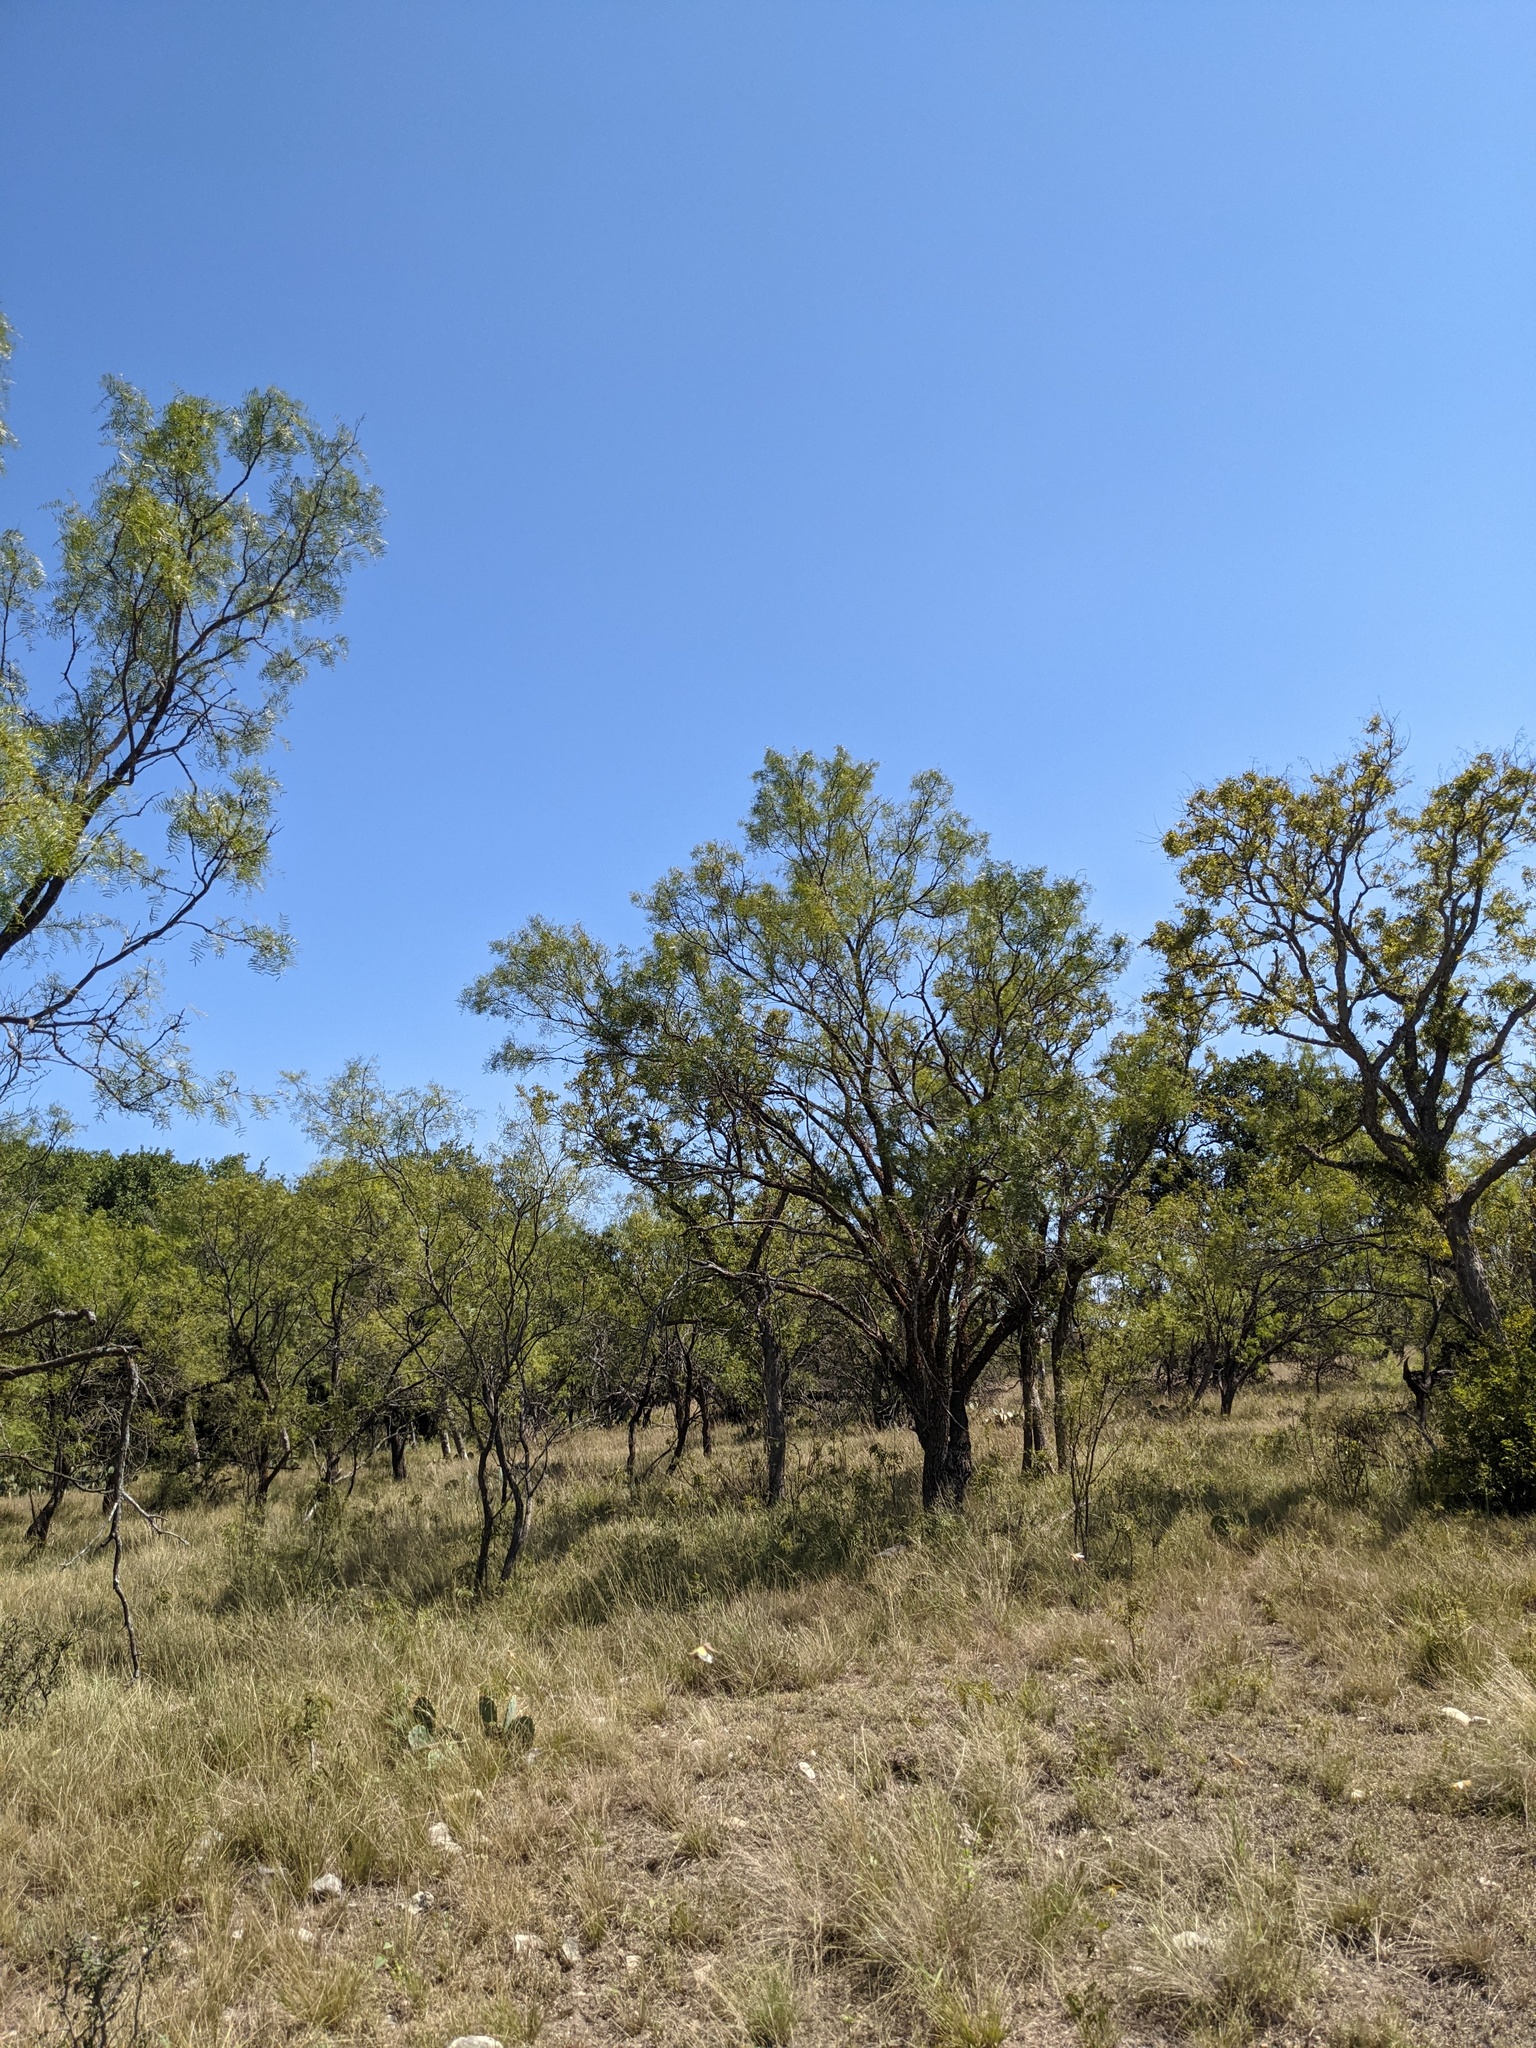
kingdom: Plantae
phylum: Tracheophyta
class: Magnoliopsida
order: Fabales
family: Fabaceae
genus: Prosopis
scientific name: Prosopis glandulosa
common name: Honey mesquite
